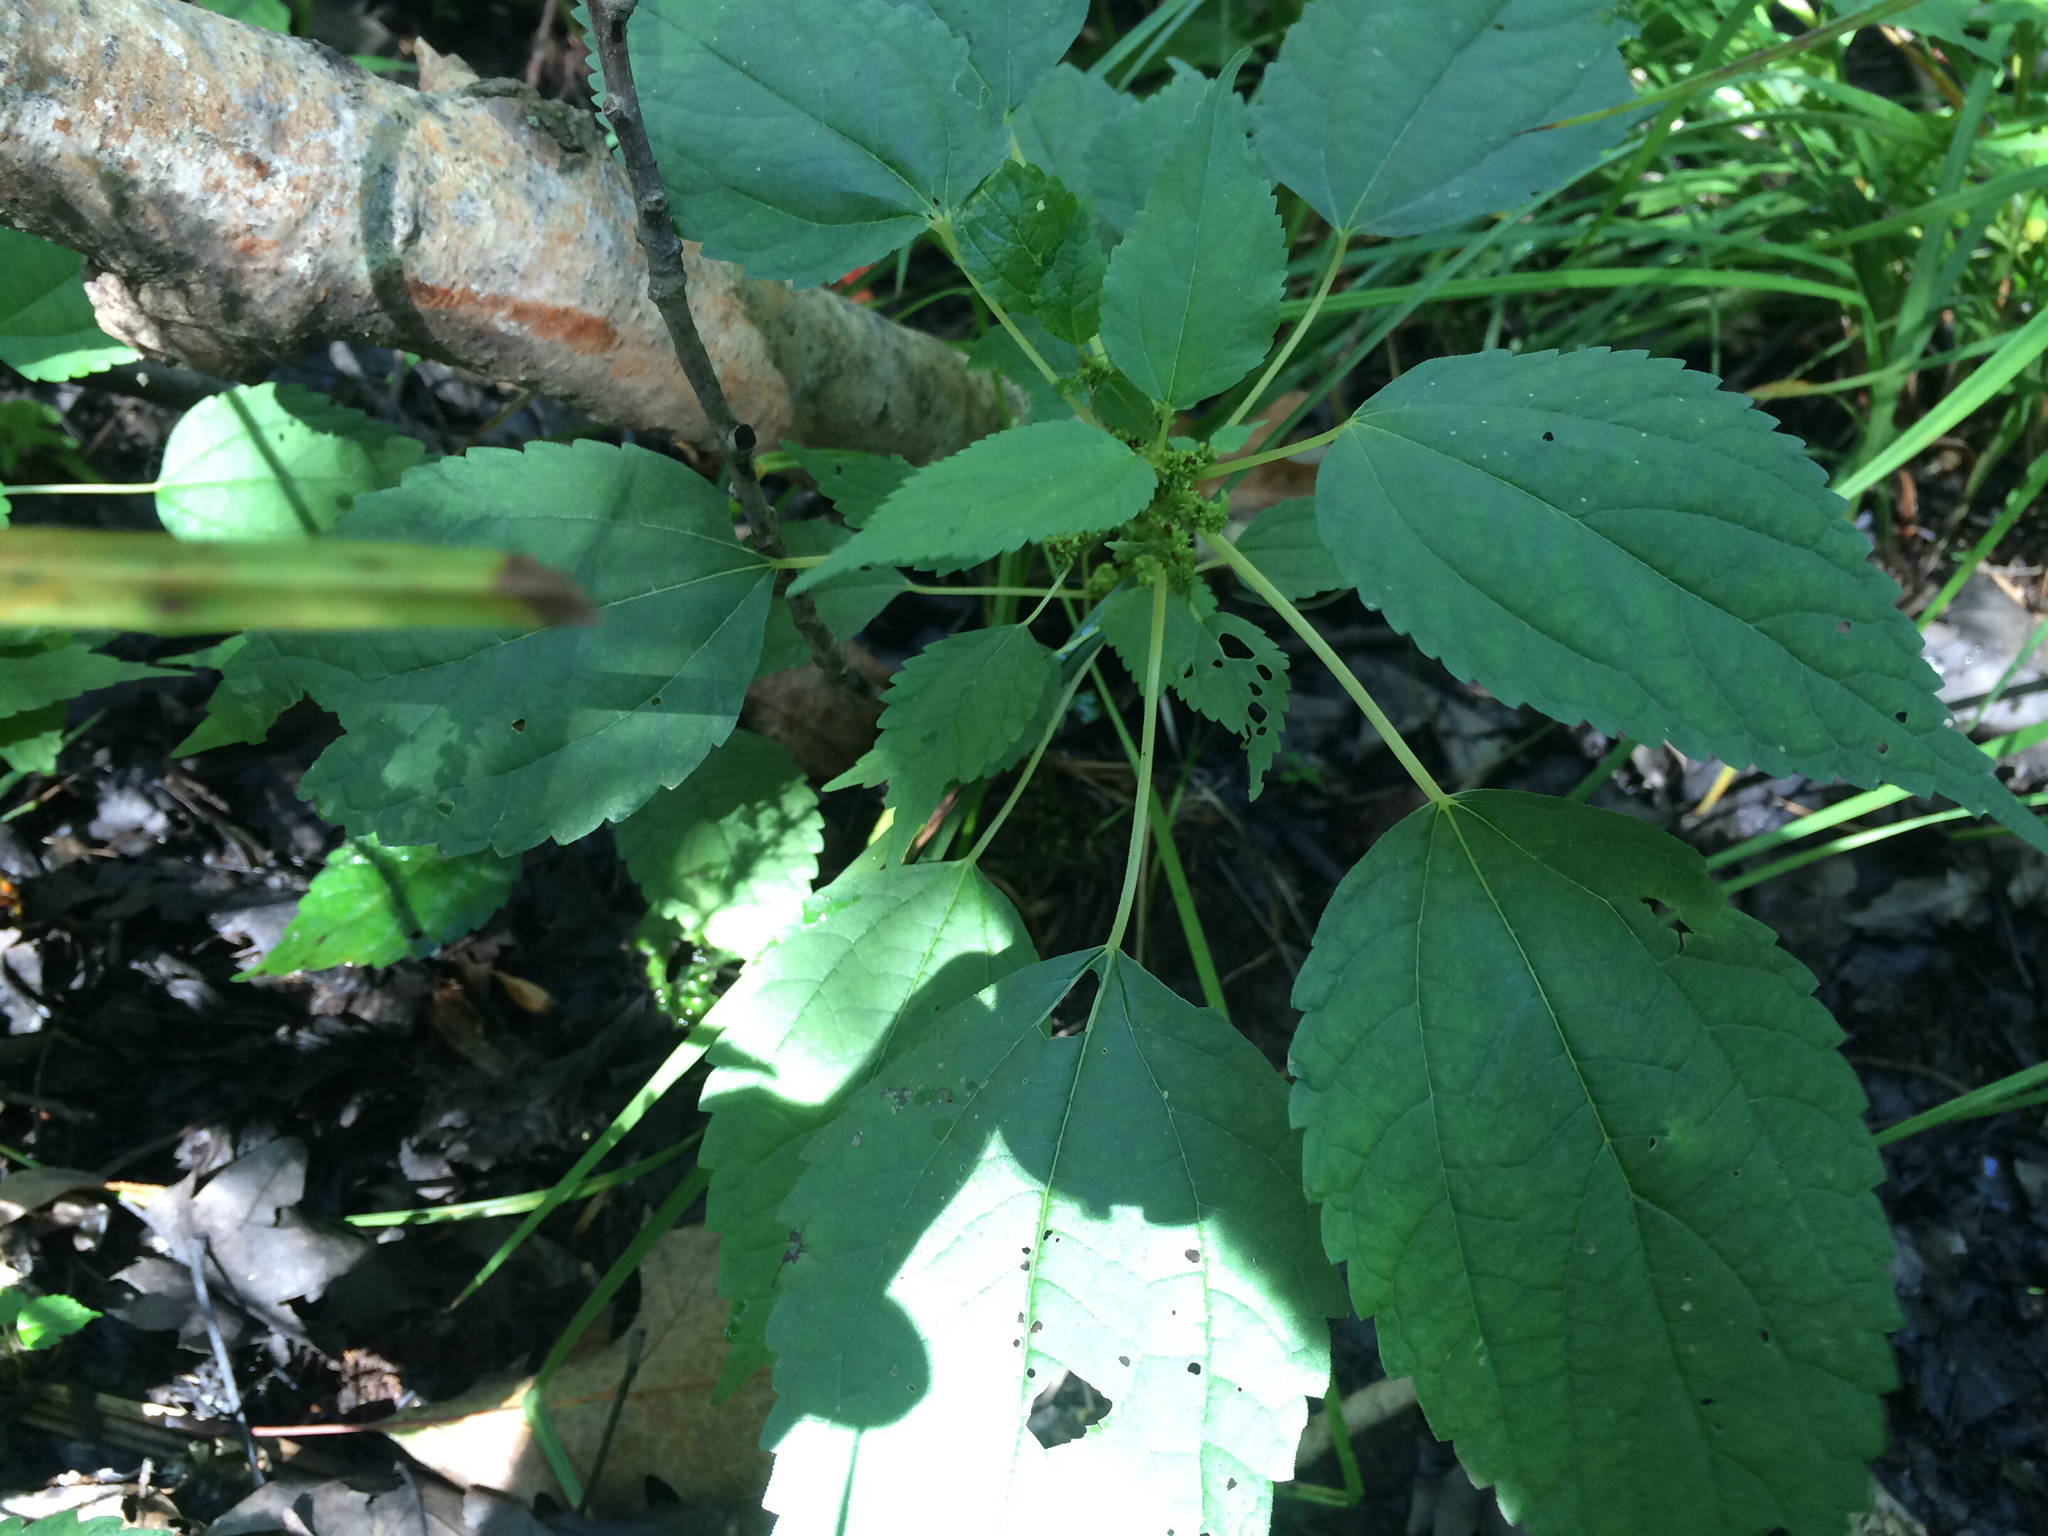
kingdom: Plantae
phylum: Tracheophyta
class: Magnoliopsida
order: Rosales
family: Urticaceae
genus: Boehmeria
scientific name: Boehmeria cylindrica
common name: Bog-hemp
